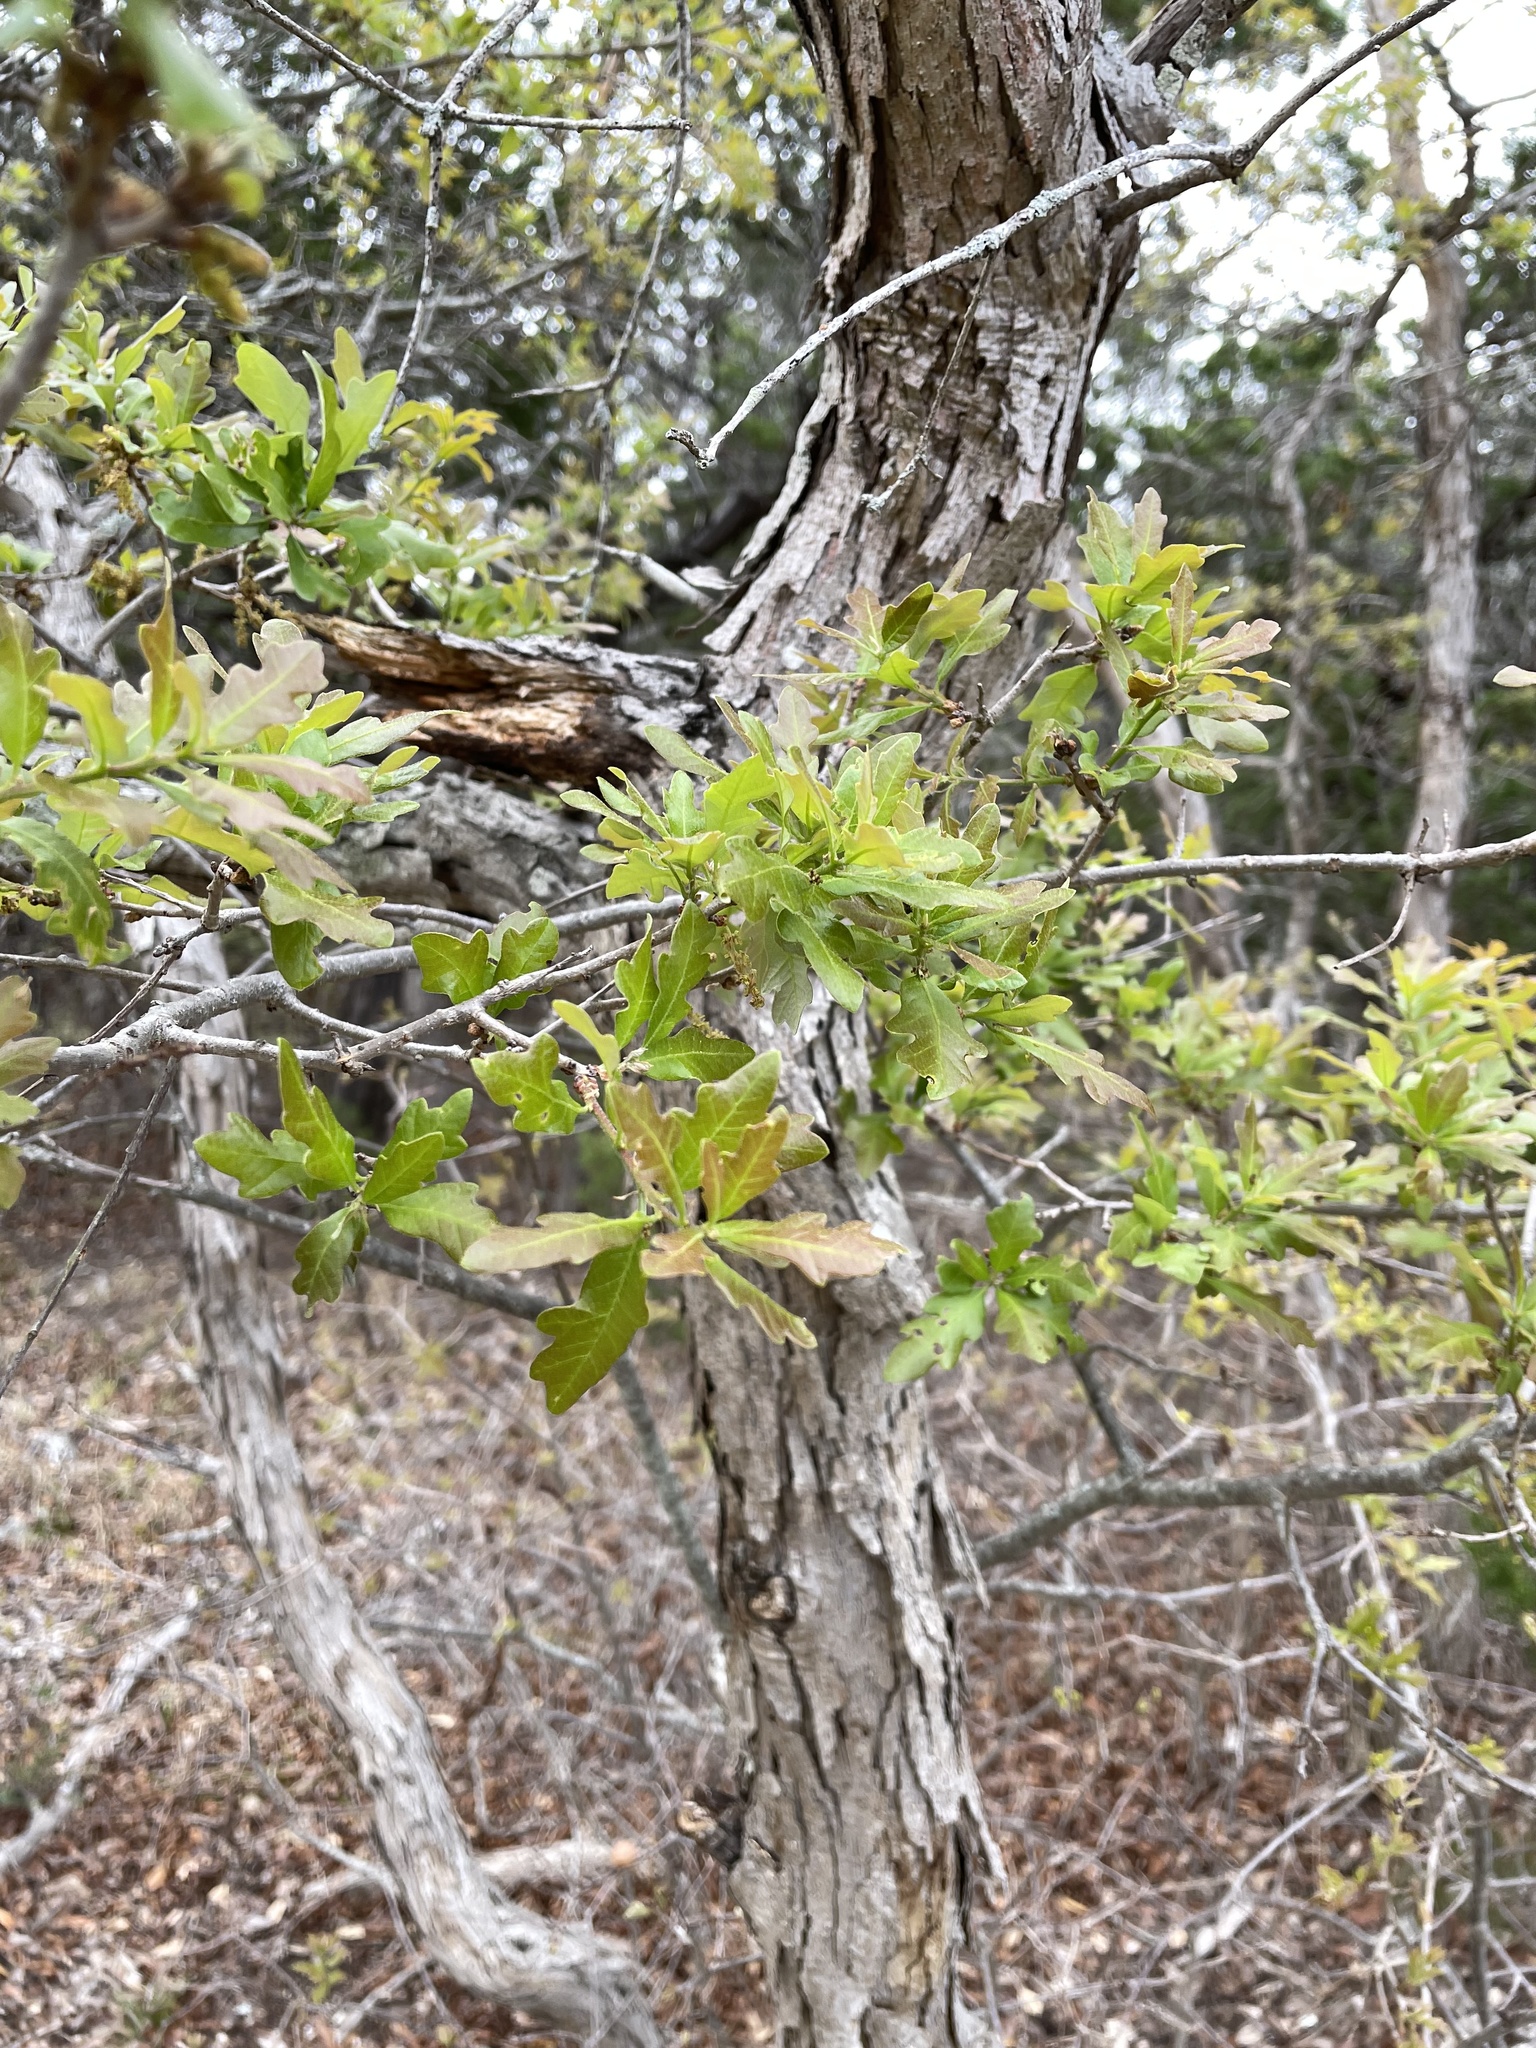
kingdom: Plantae
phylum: Tracheophyta
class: Magnoliopsida
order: Fagales
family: Fagaceae
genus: Quercus
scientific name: Quercus sinuata
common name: Durand oak
